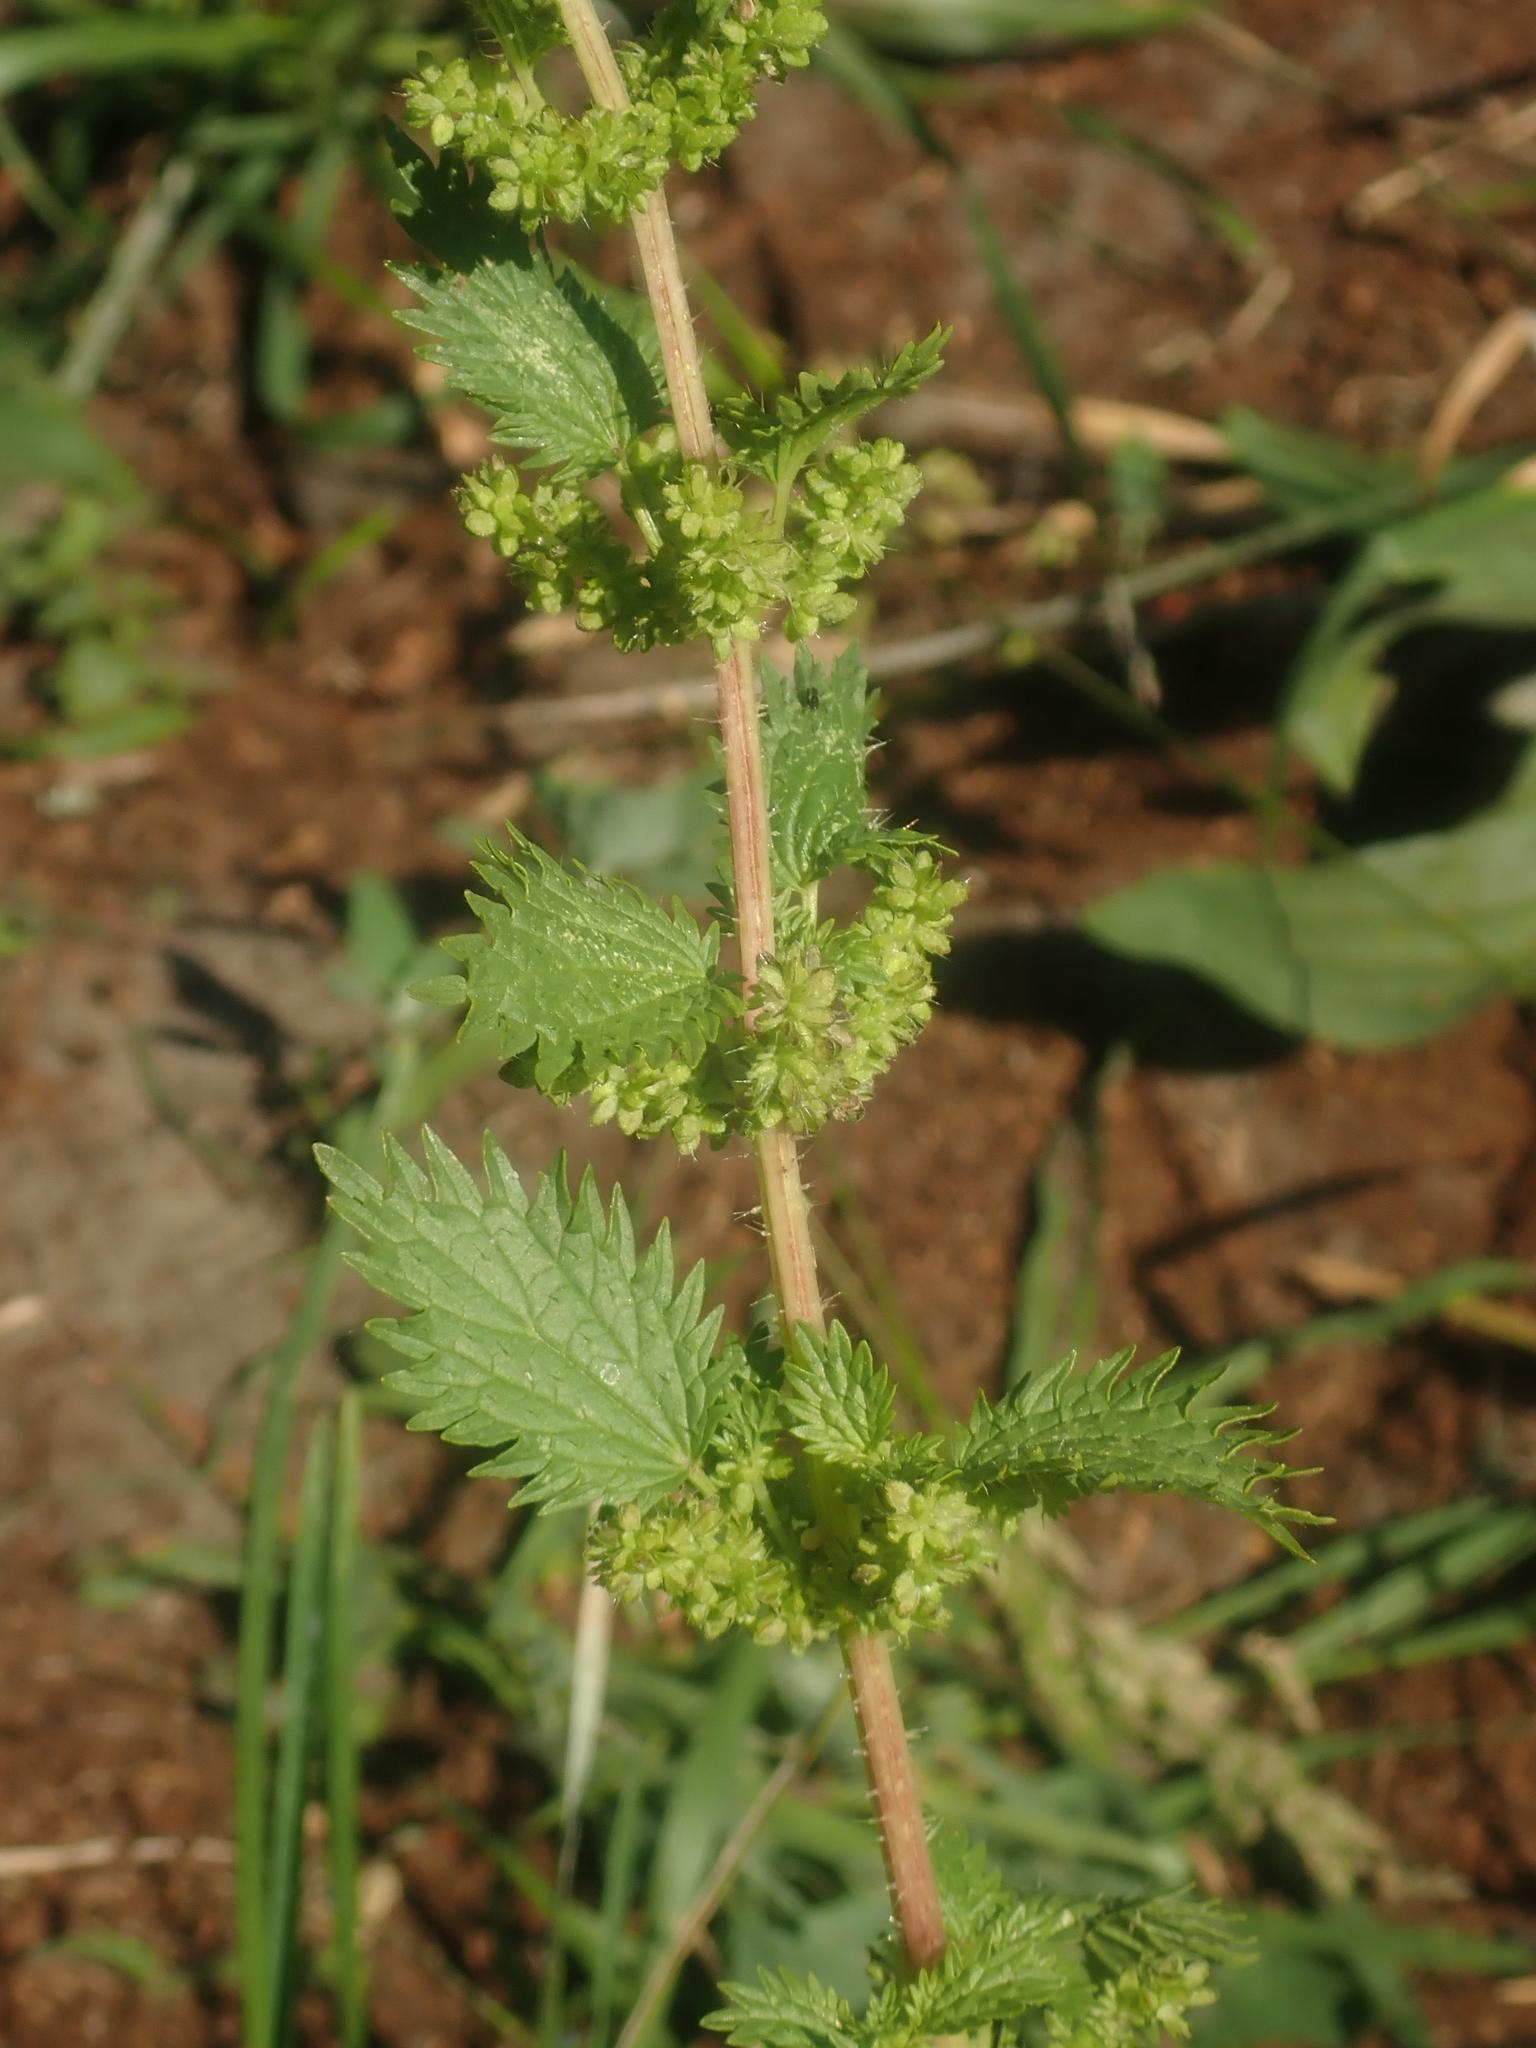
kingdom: Plantae
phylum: Tracheophyta
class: Magnoliopsida
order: Rosales
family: Urticaceae
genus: Urtica
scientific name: Urtica urens
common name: Dwarf nettle
